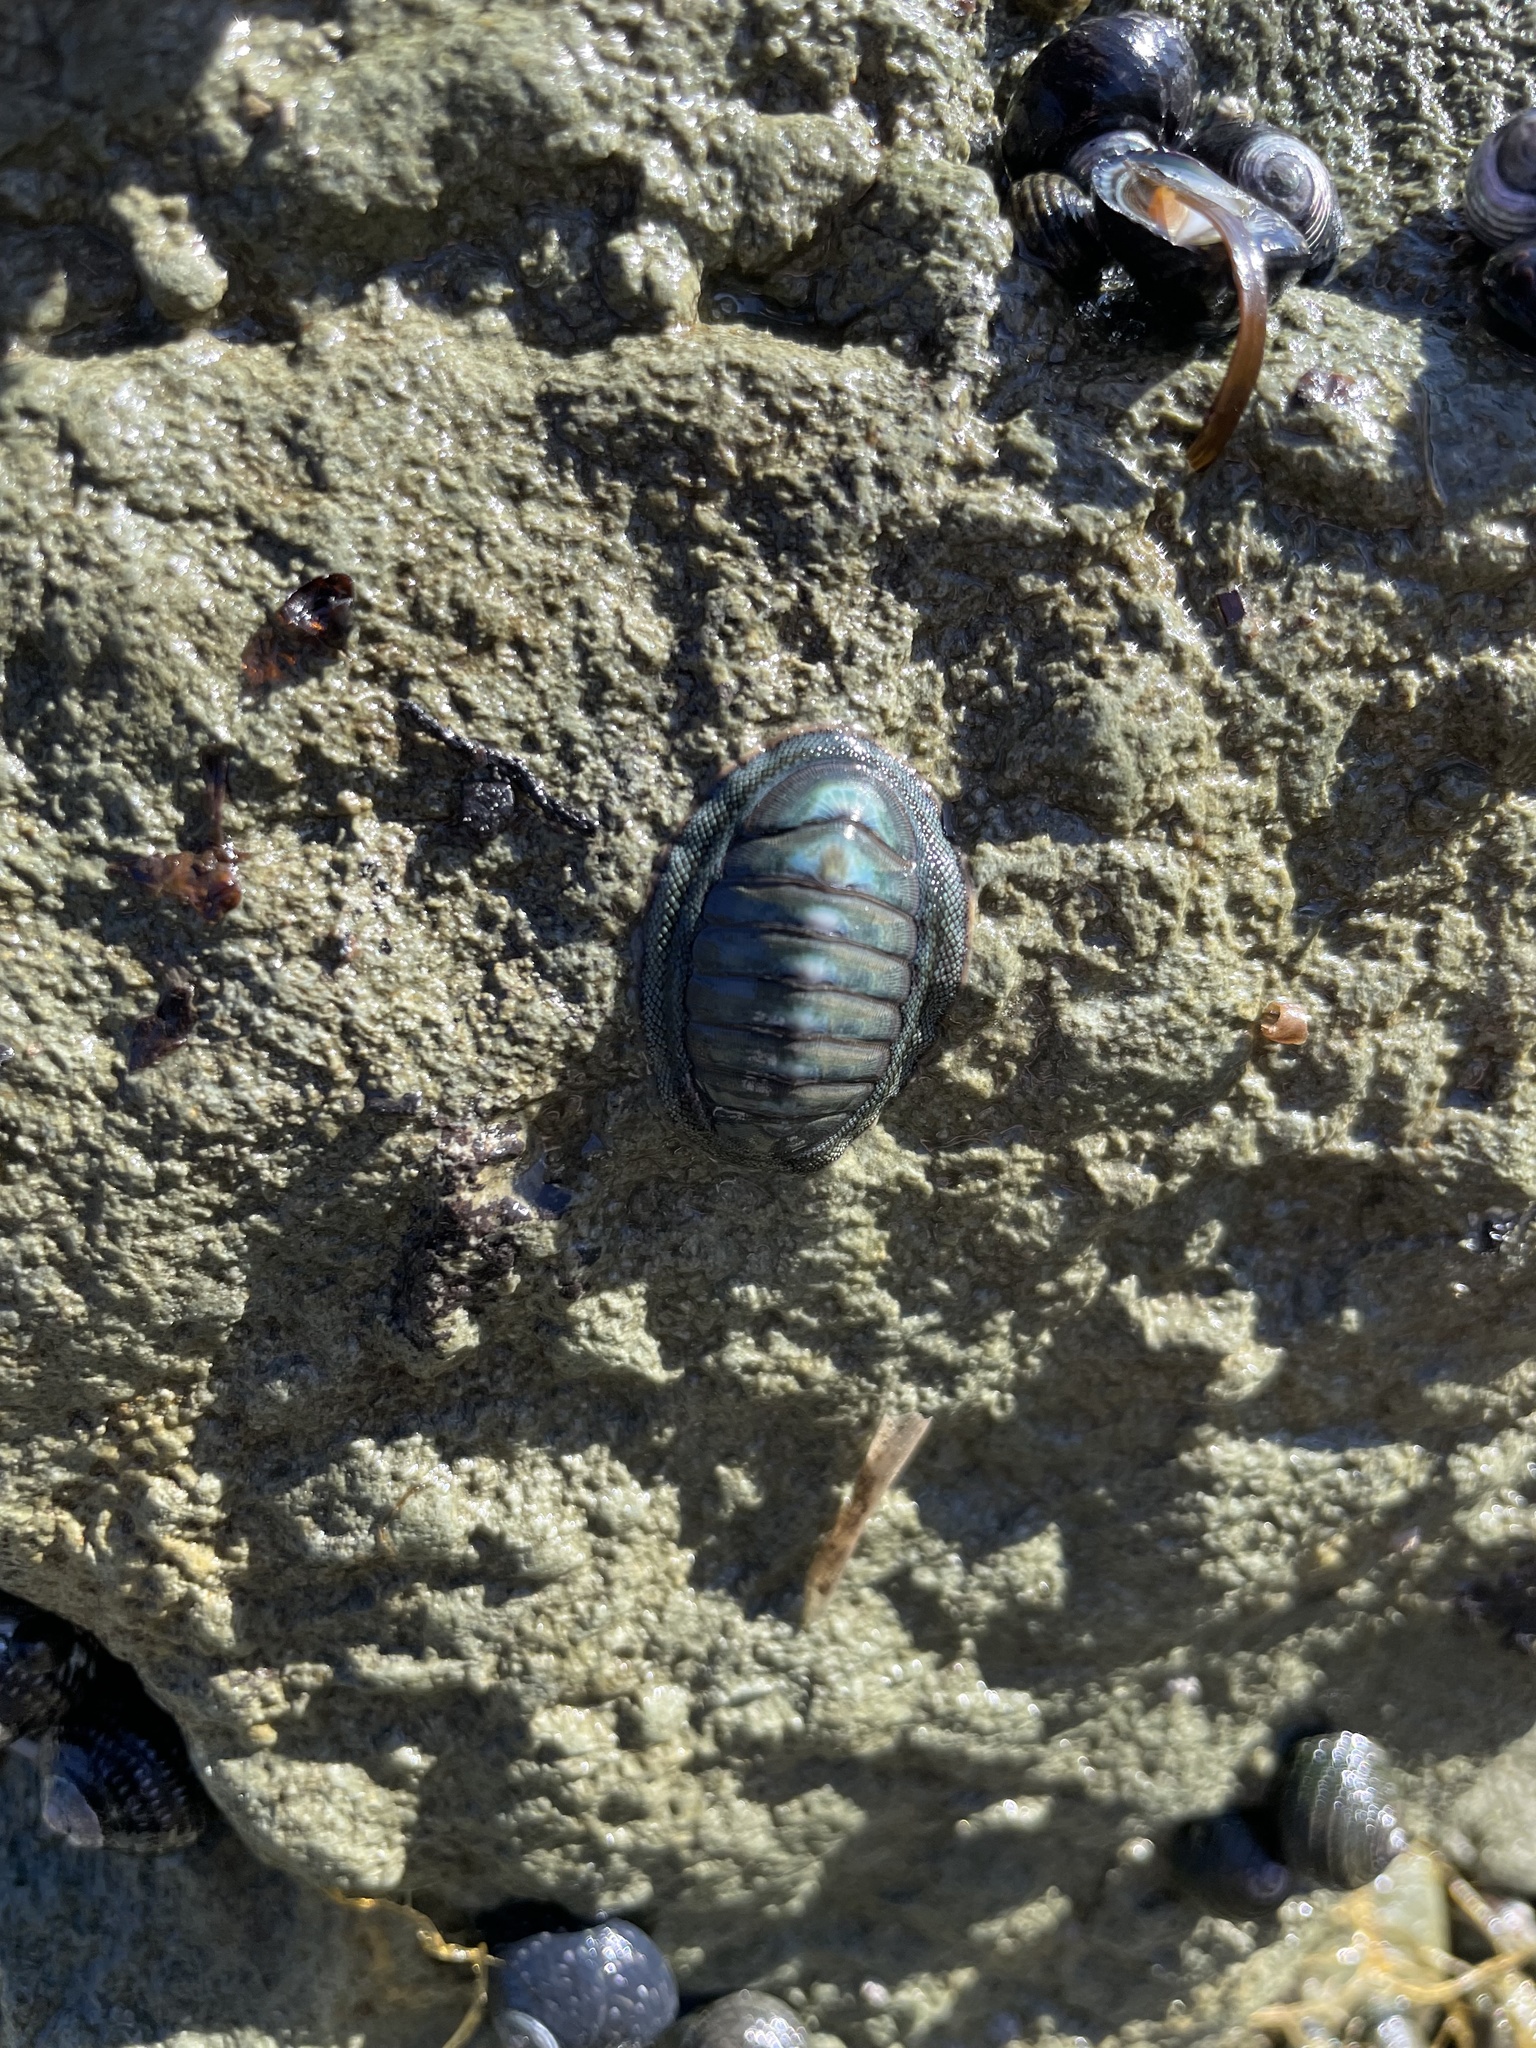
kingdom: Animalia
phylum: Mollusca
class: Polyplacophora
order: Chitonida
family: Chitonidae
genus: Chiton
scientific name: Chiton glaucus
